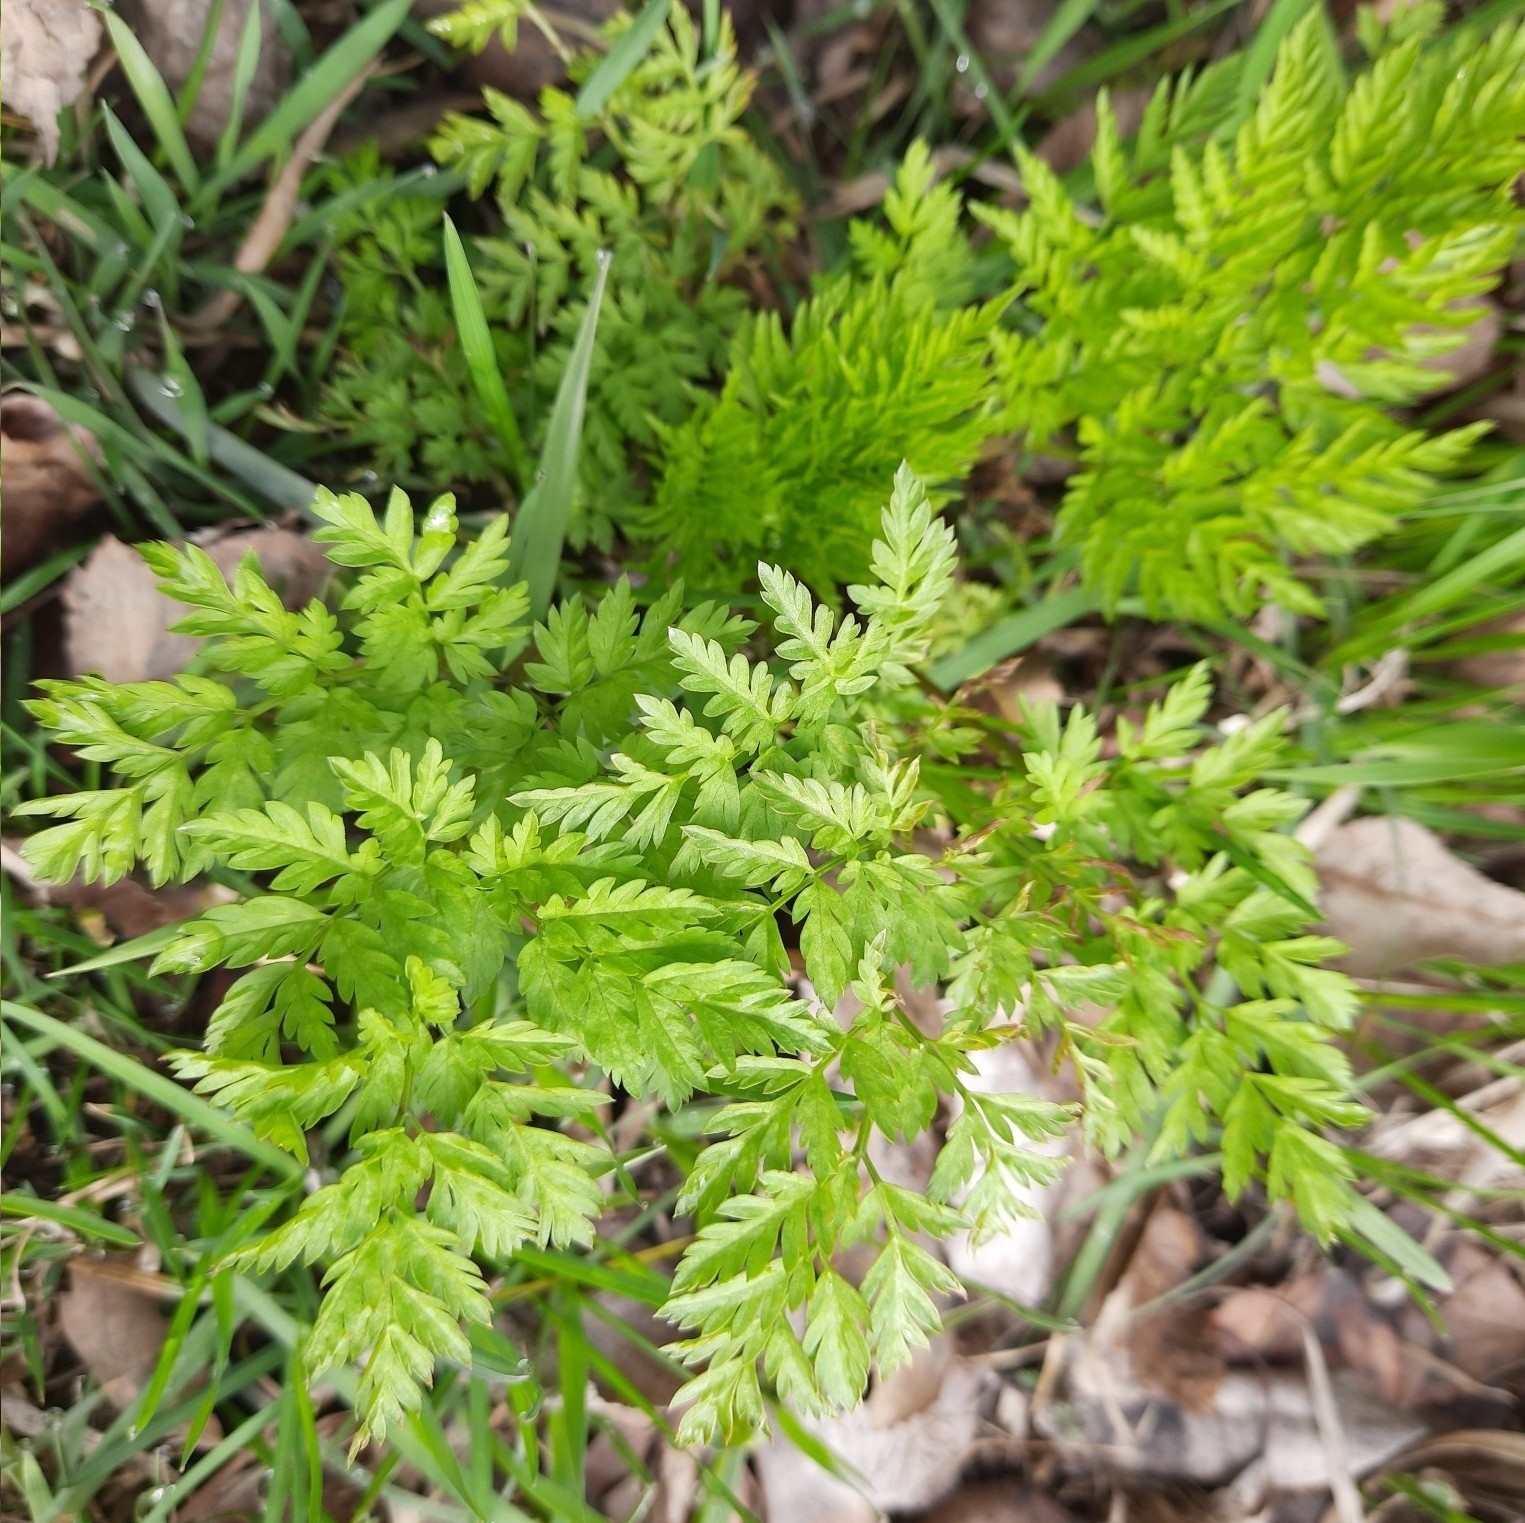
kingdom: Plantae
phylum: Tracheophyta
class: Magnoliopsida
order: Apiales
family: Apiaceae
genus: Anthriscus
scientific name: Anthriscus sylvestris
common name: Cow parsley
